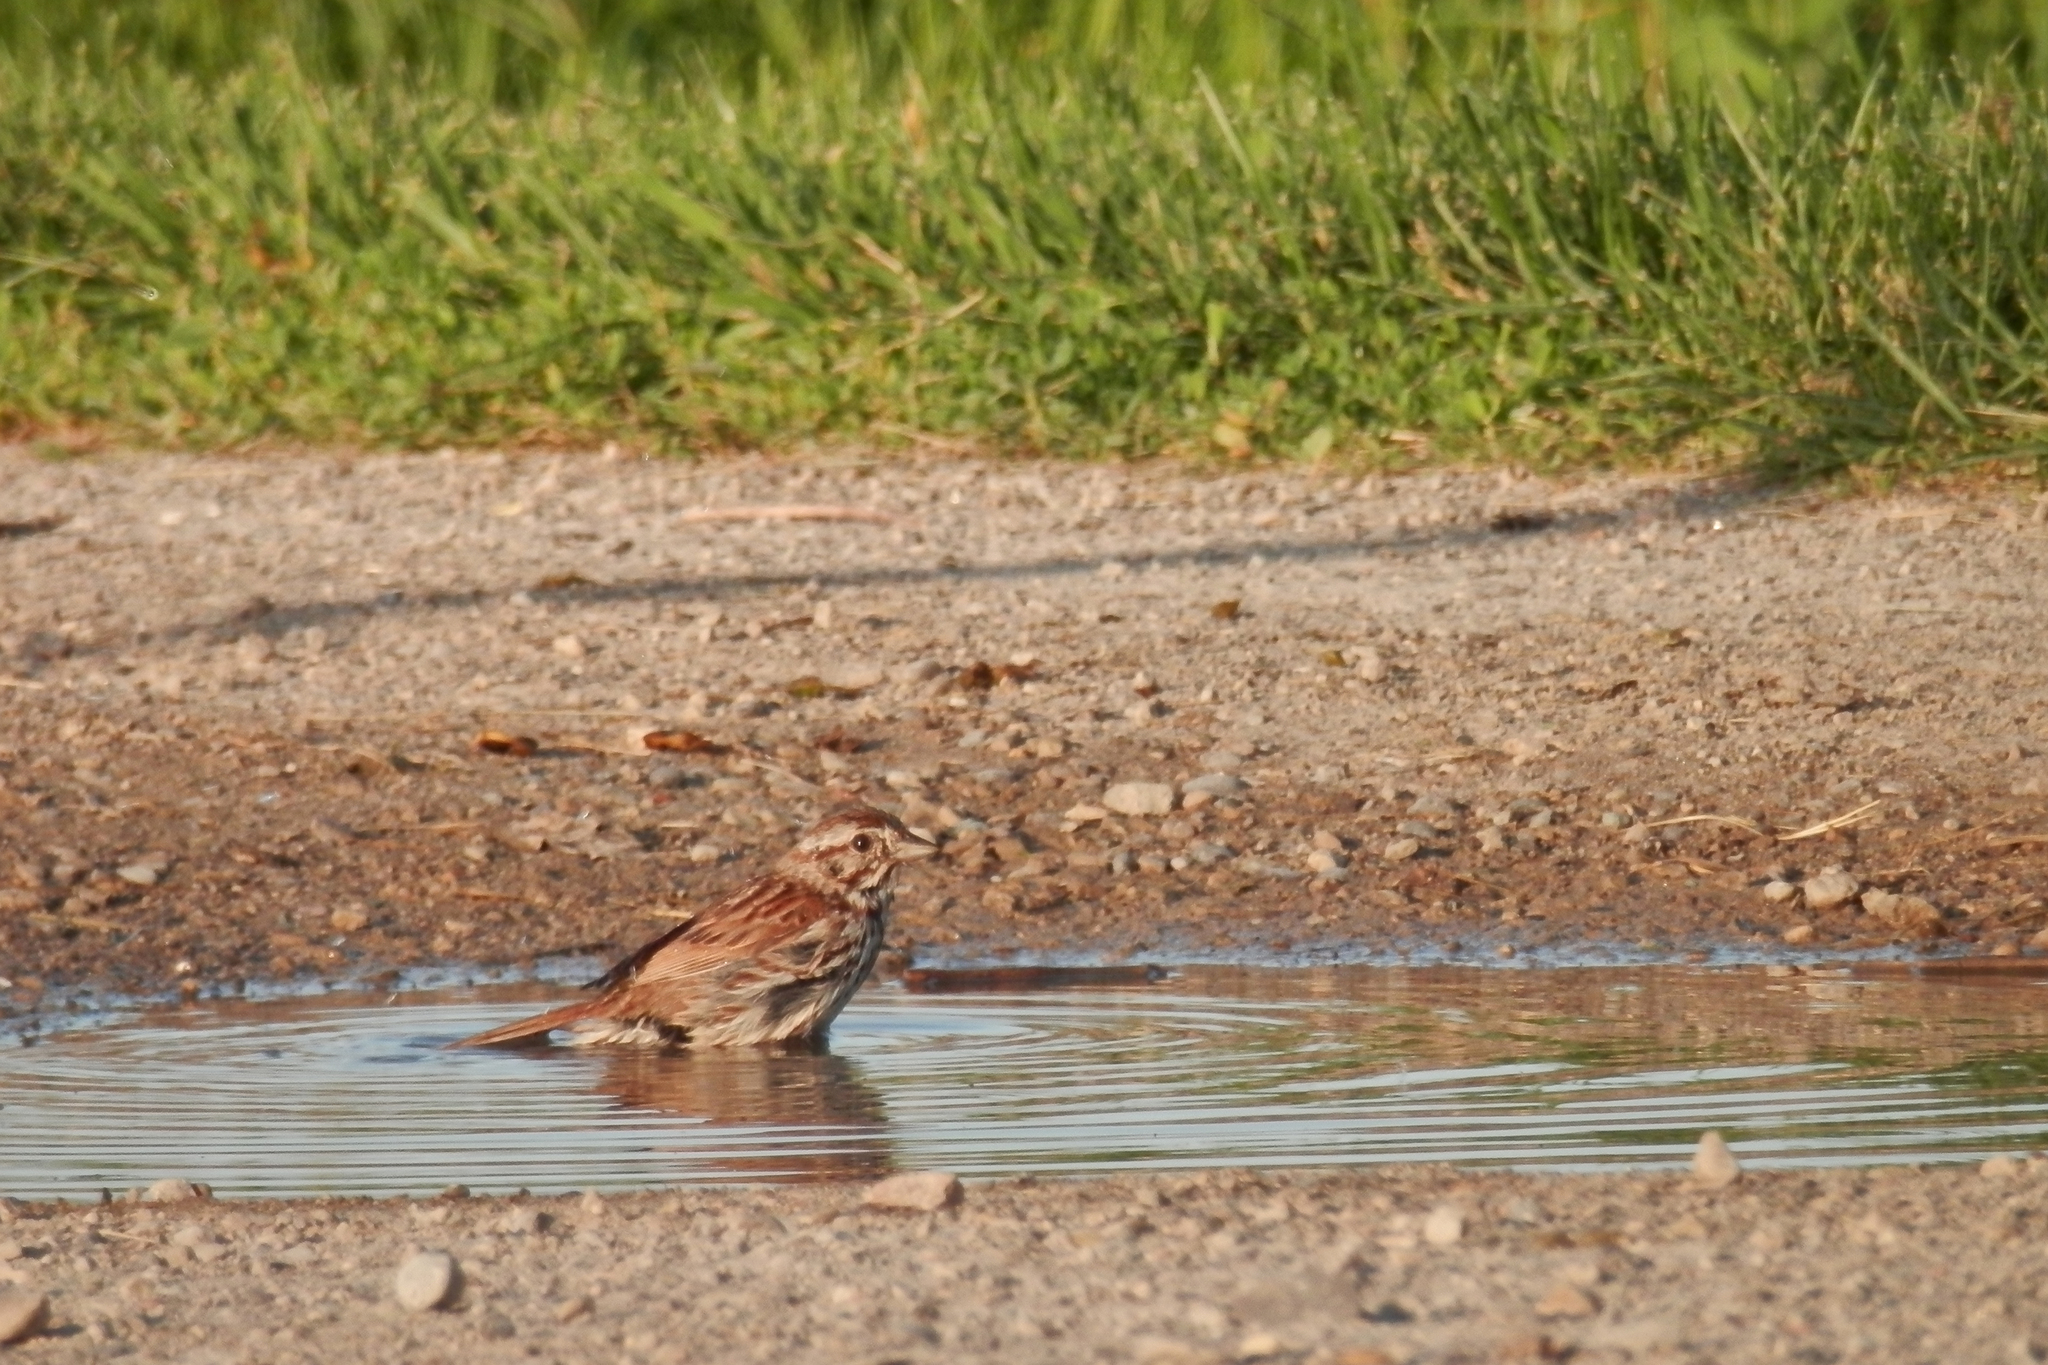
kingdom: Animalia
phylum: Chordata
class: Aves
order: Passeriformes
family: Passerellidae
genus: Melospiza
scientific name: Melospiza melodia
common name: Song sparrow
